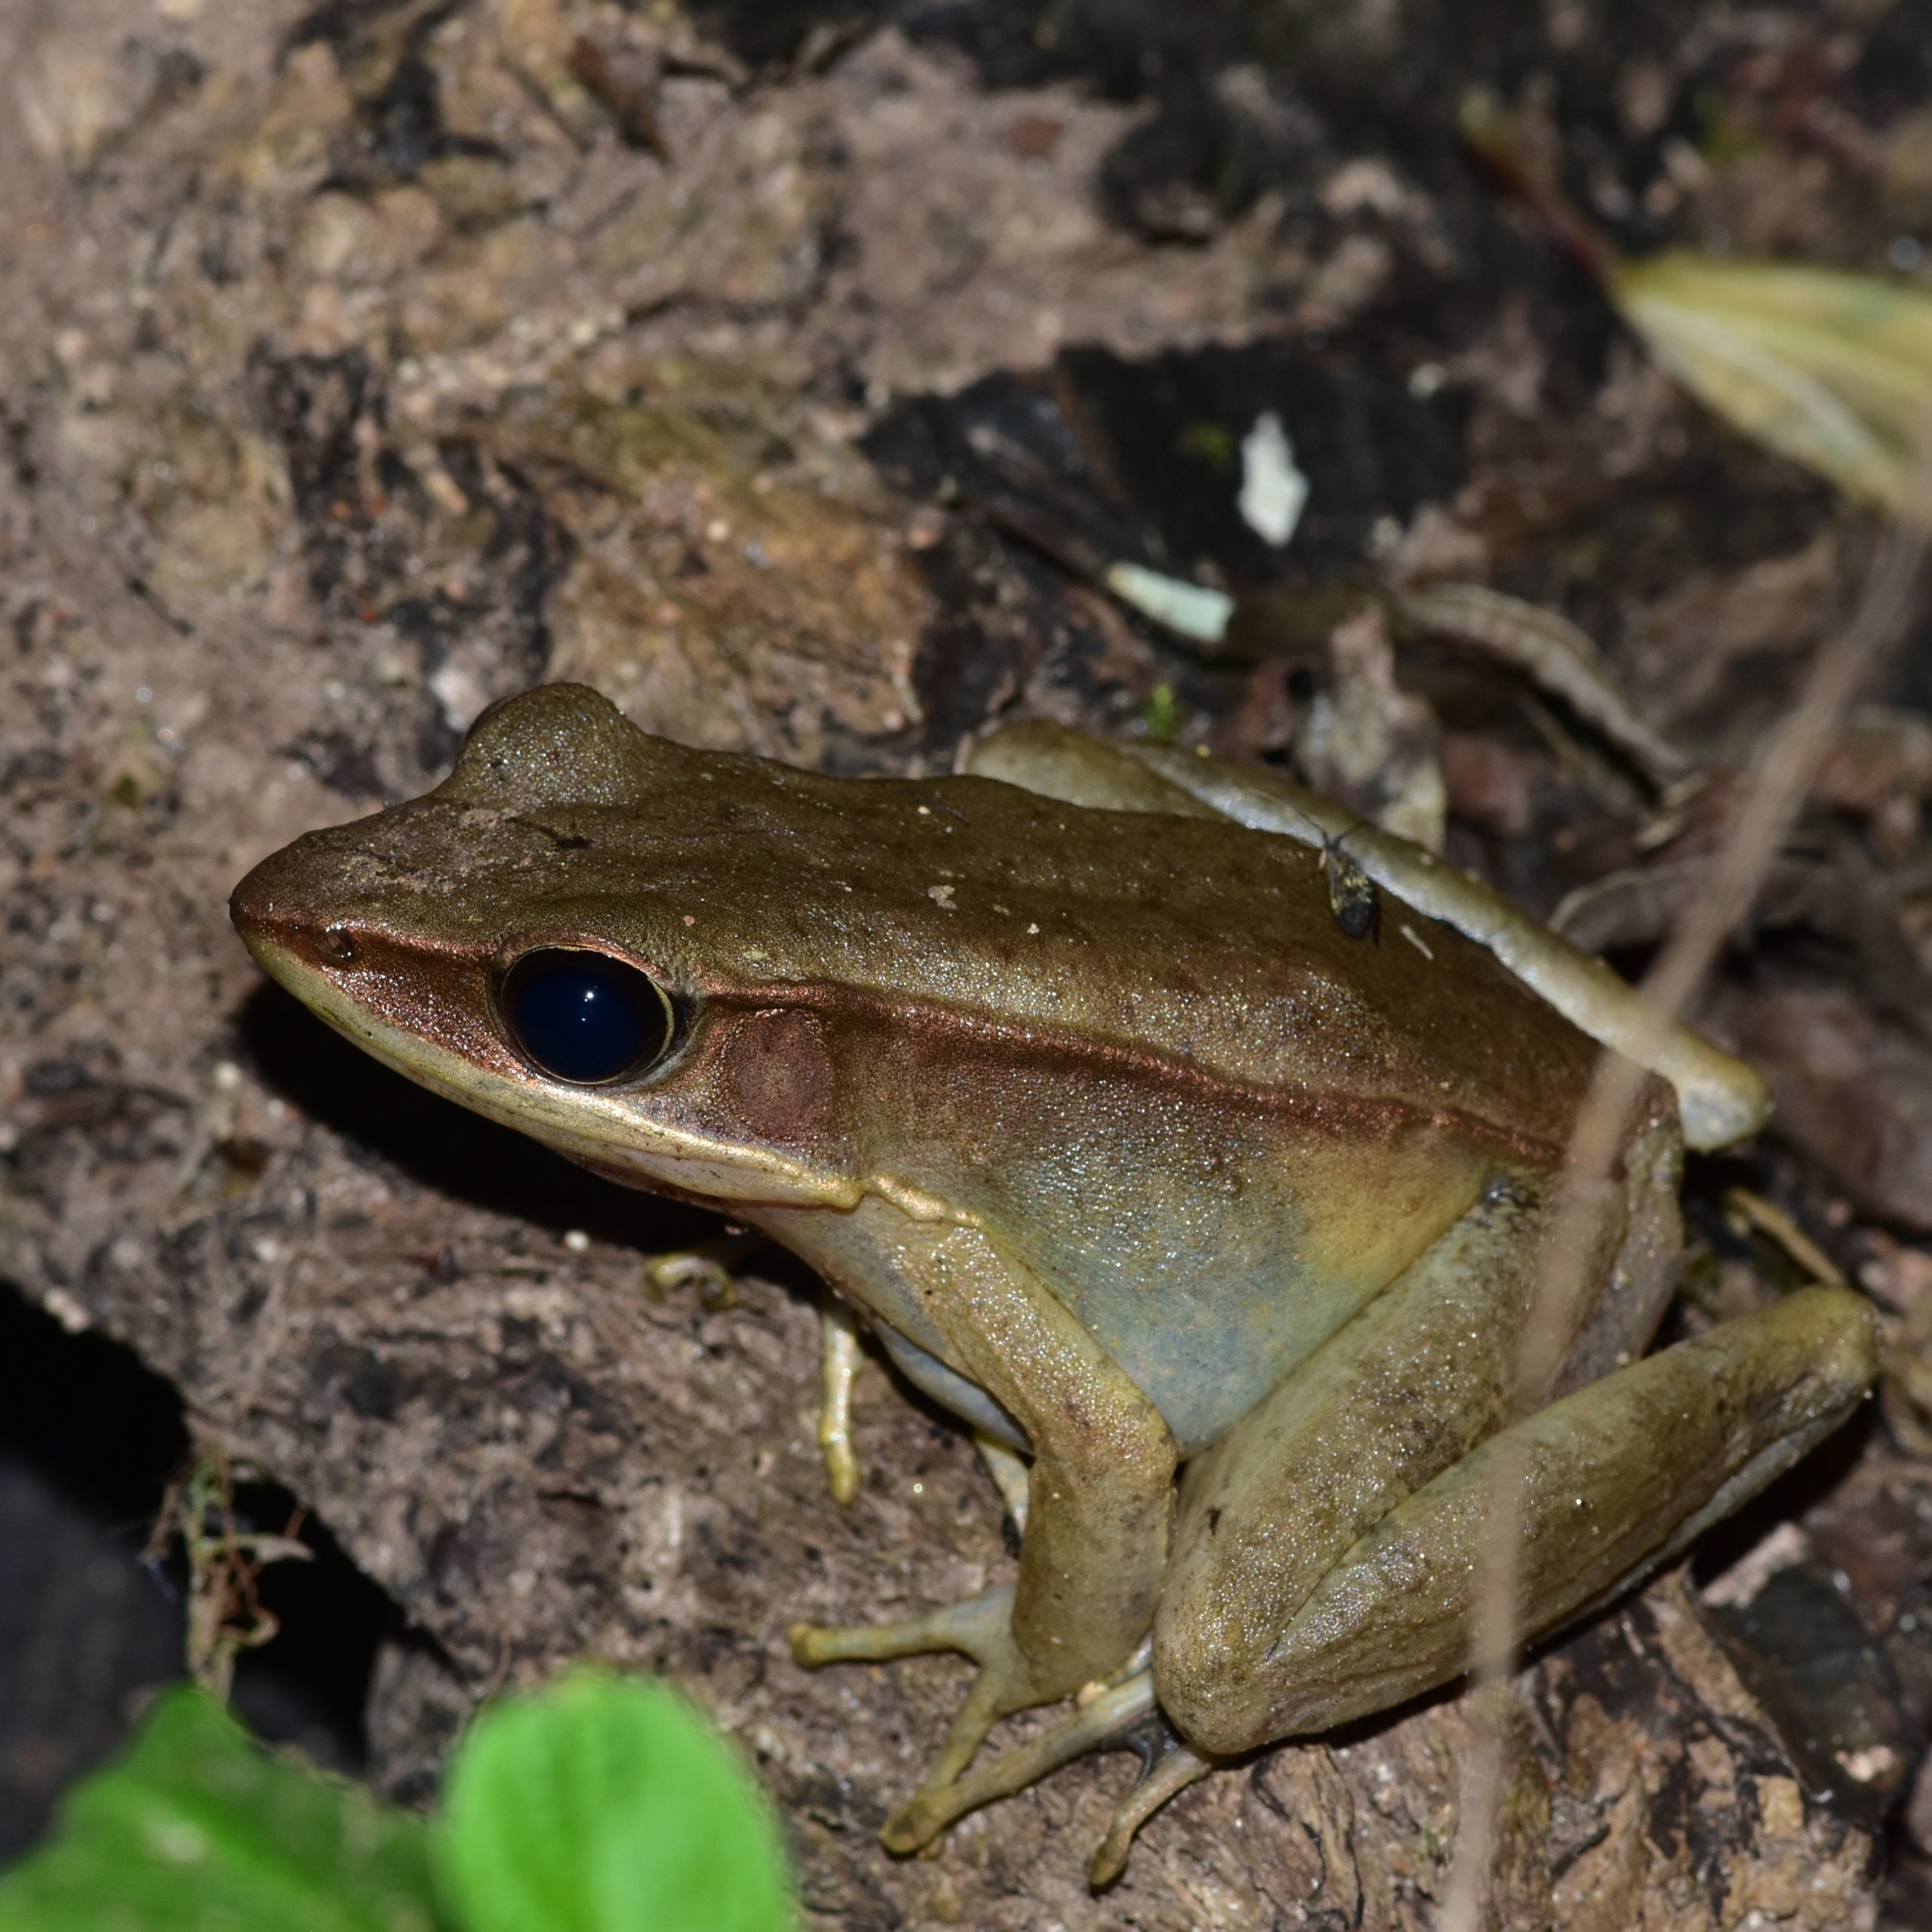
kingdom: Animalia
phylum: Chordata
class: Amphibia
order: Anura
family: Ranidae
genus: Indosylvirana
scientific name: Indosylvirana sreeni
